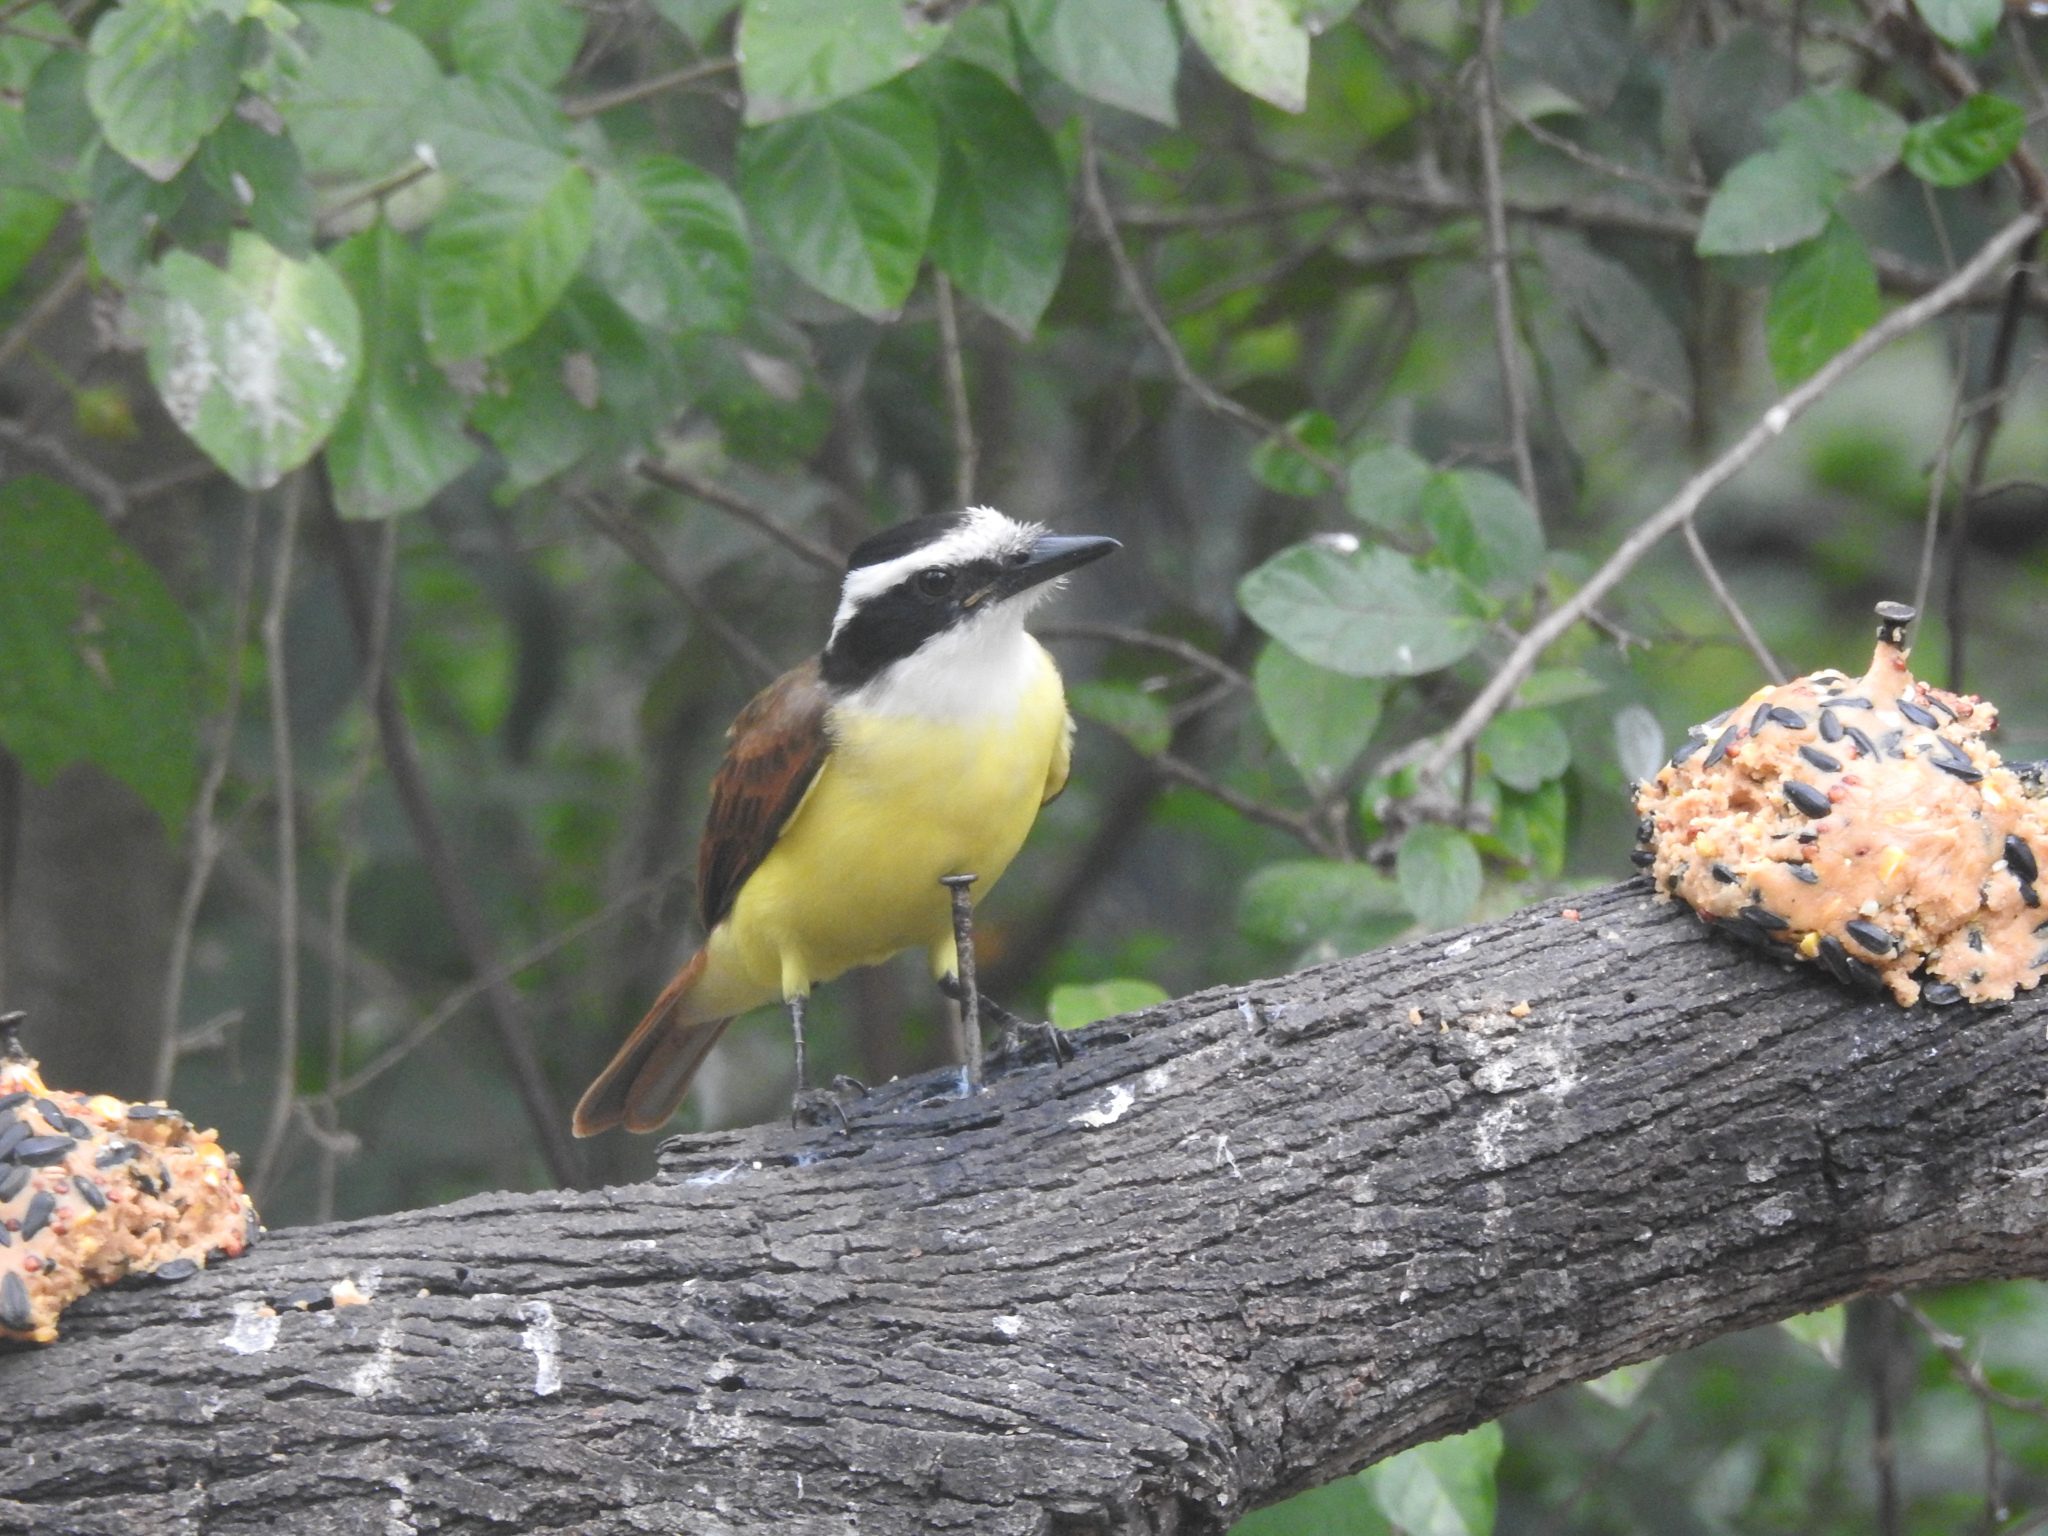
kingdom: Animalia
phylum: Chordata
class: Aves
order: Passeriformes
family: Tyrannidae
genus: Pitangus
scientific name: Pitangus sulphuratus
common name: Great kiskadee
